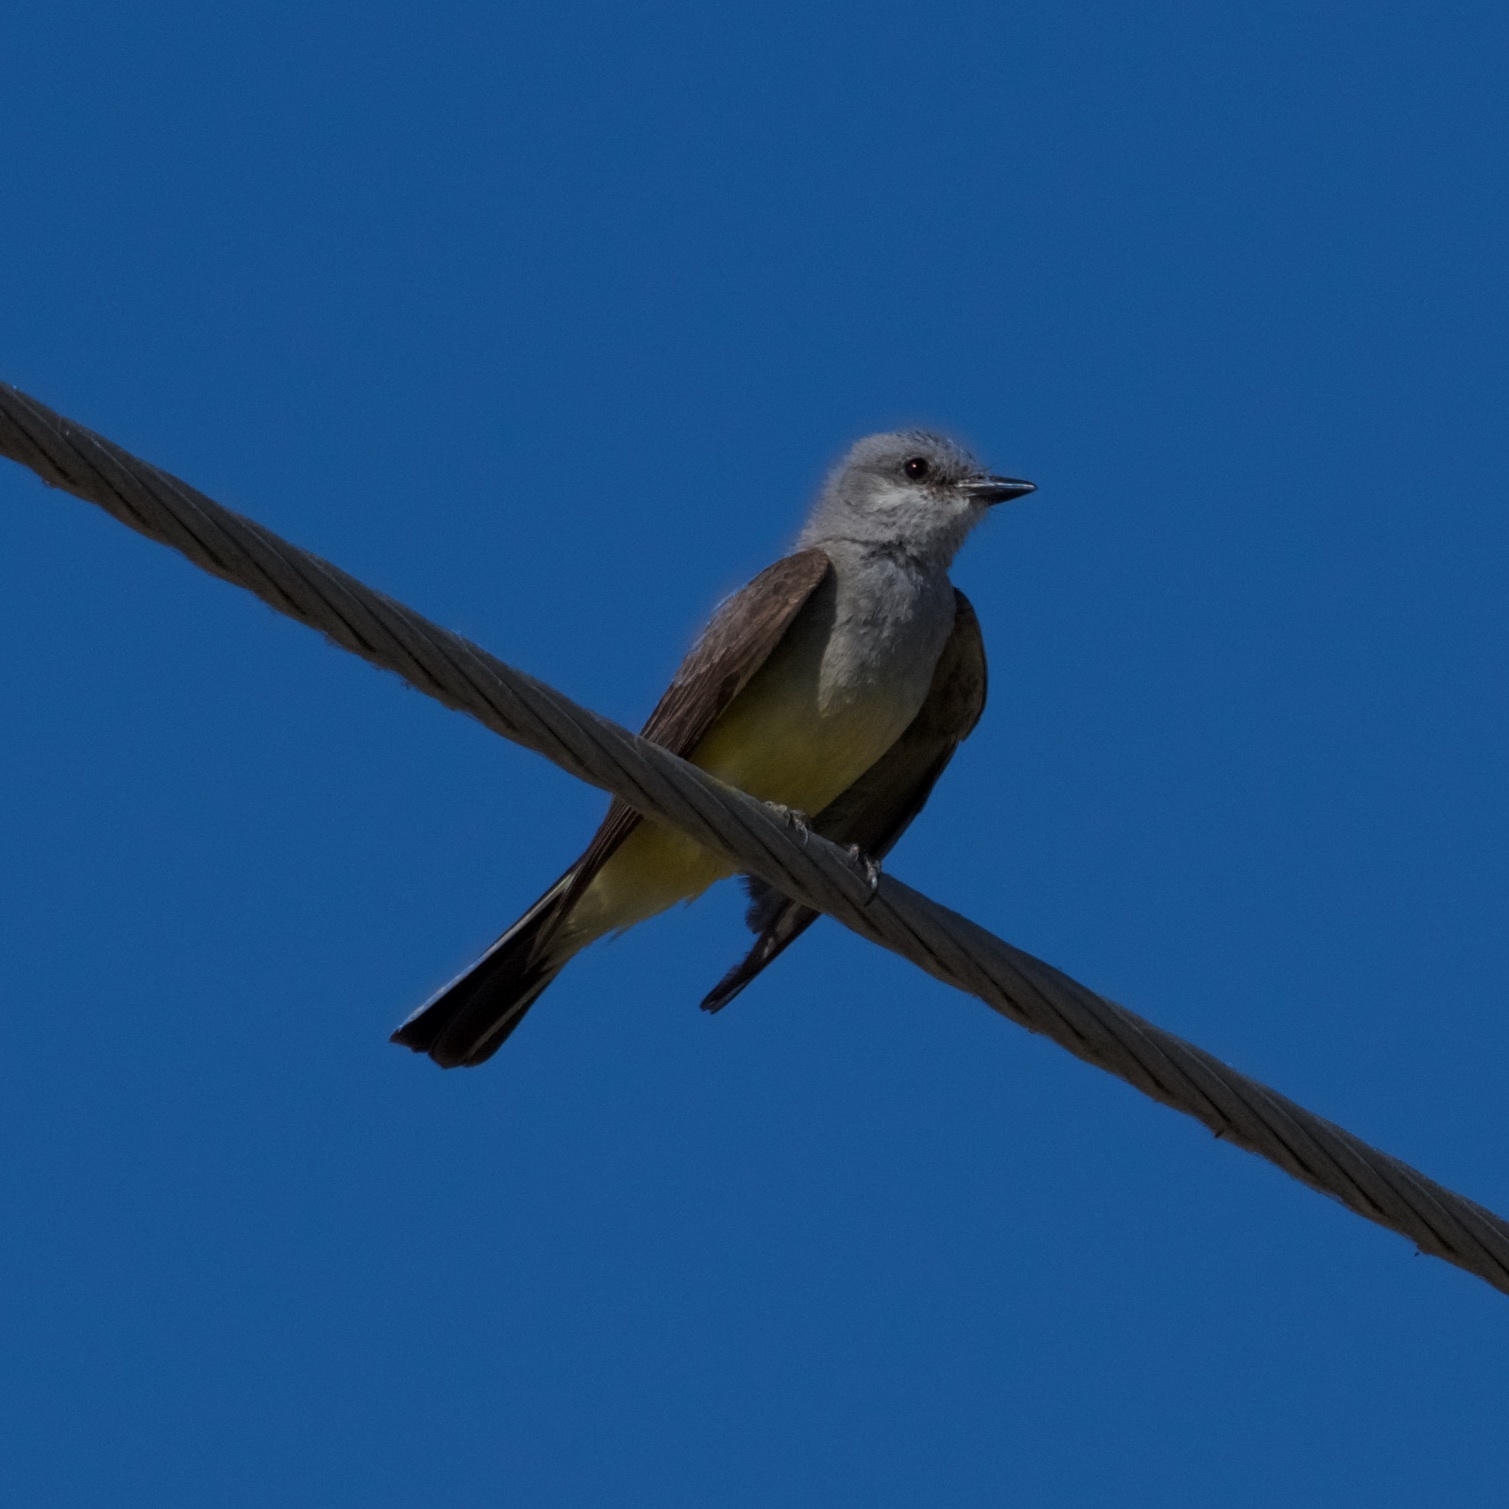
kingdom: Animalia
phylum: Chordata
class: Aves
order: Passeriformes
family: Tyrannidae
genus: Tyrannus
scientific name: Tyrannus verticalis
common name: Western kingbird
